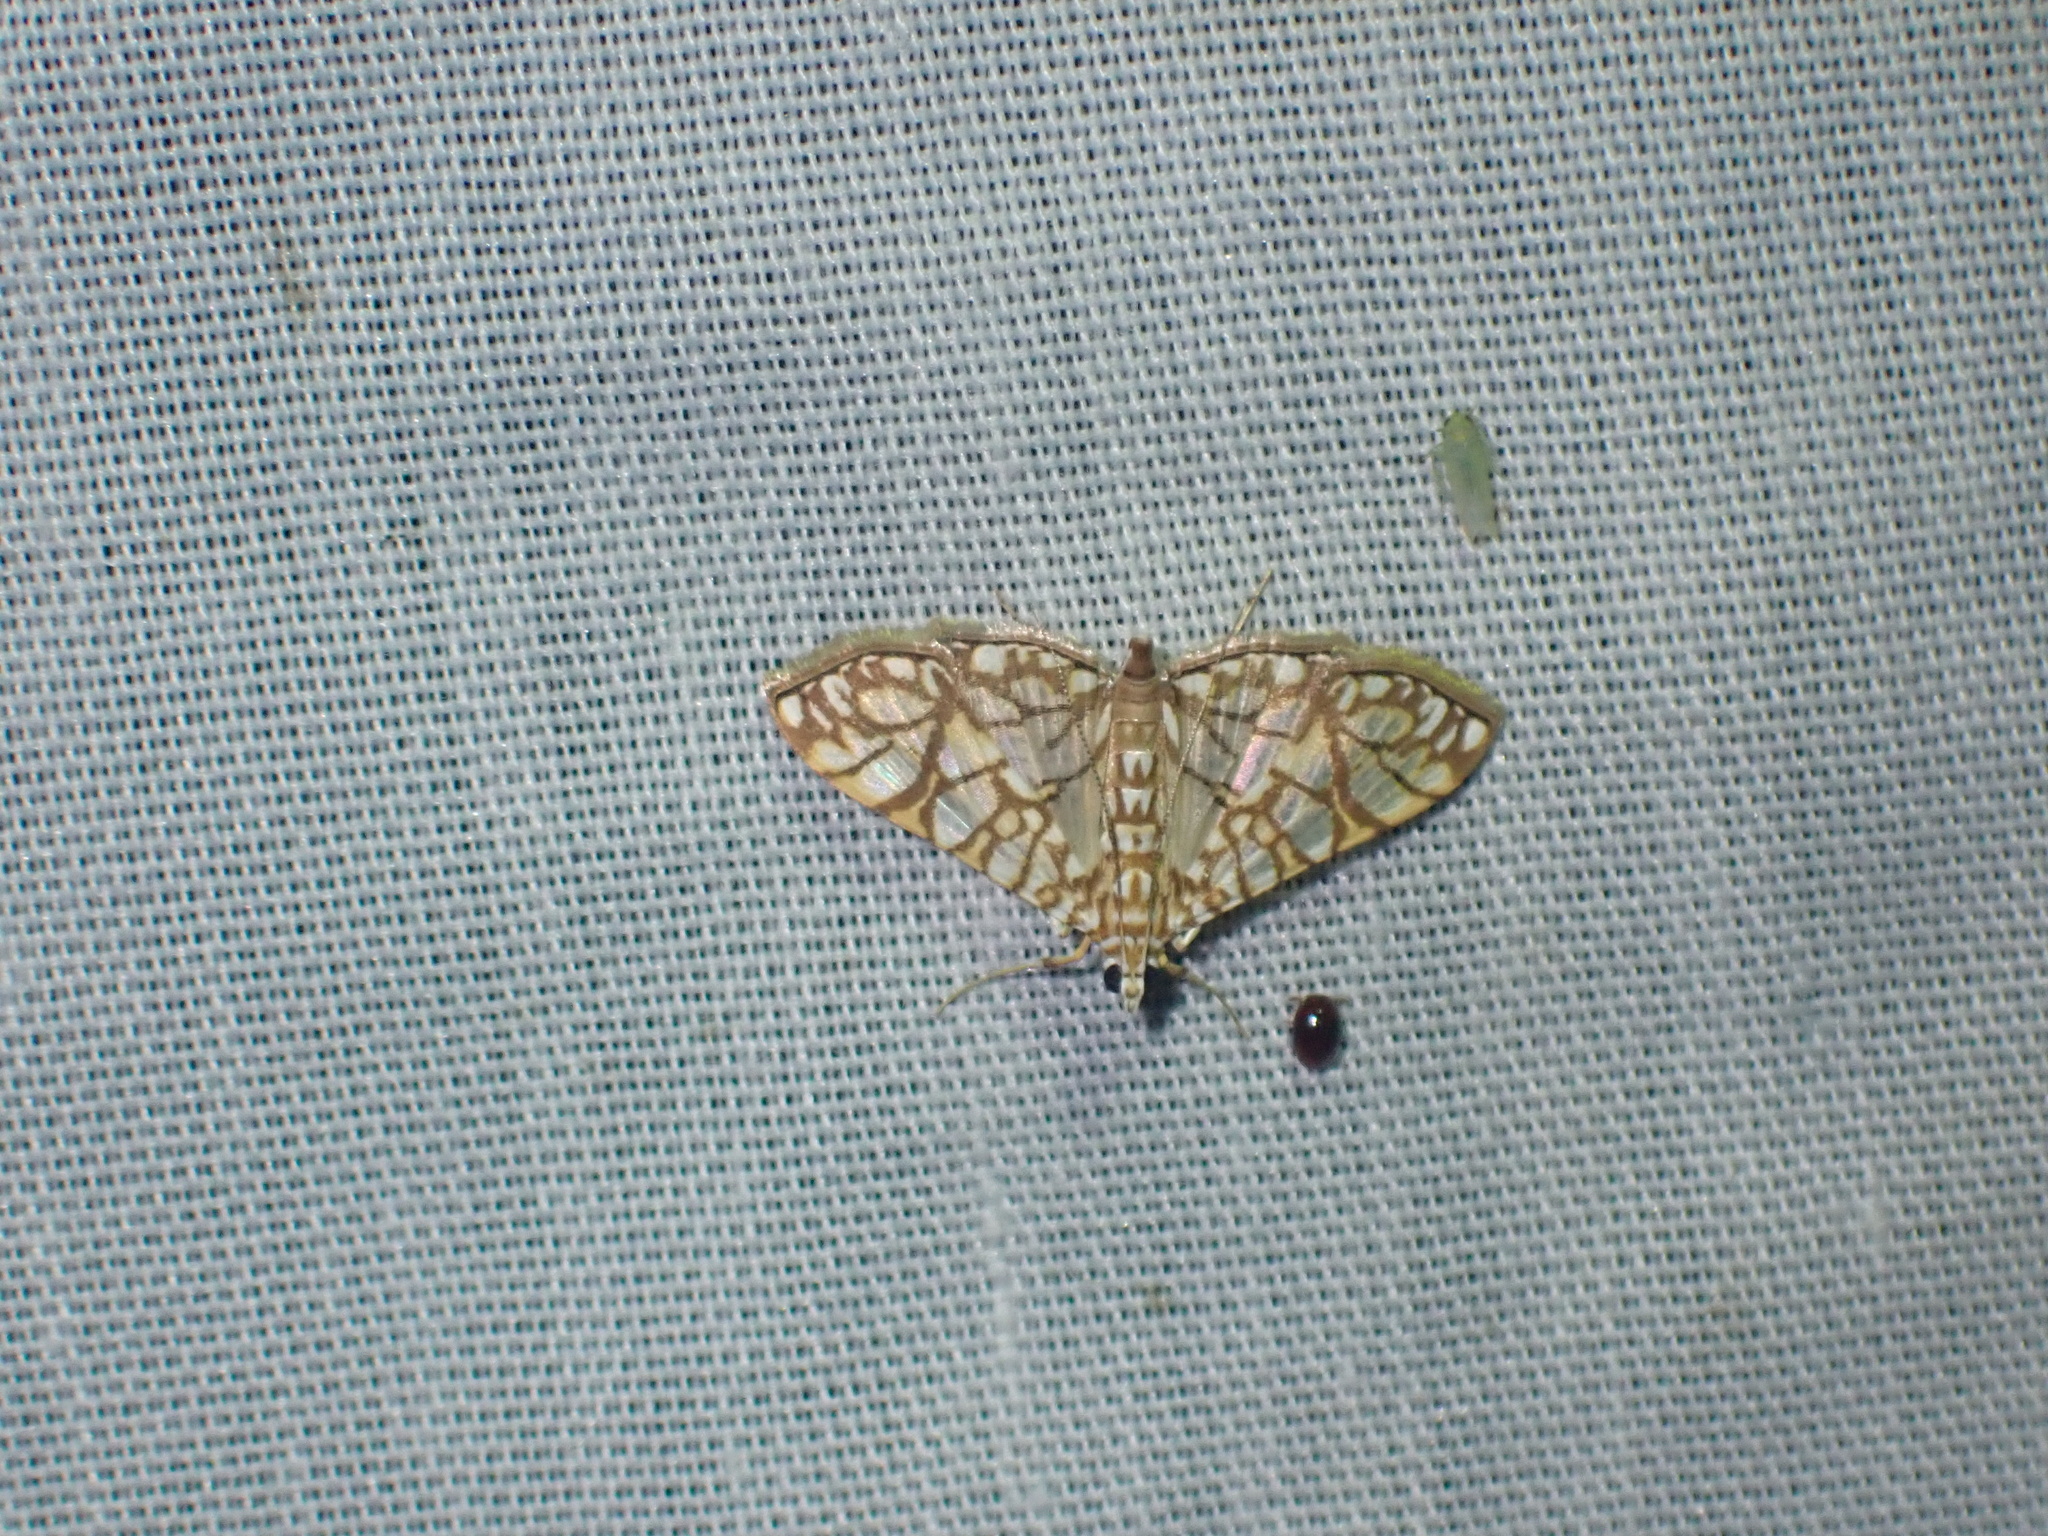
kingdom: Animalia
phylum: Arthropoda
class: Insecta
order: Lepidoptera
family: Crambidae
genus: Synclera
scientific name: Synclera traducalis
